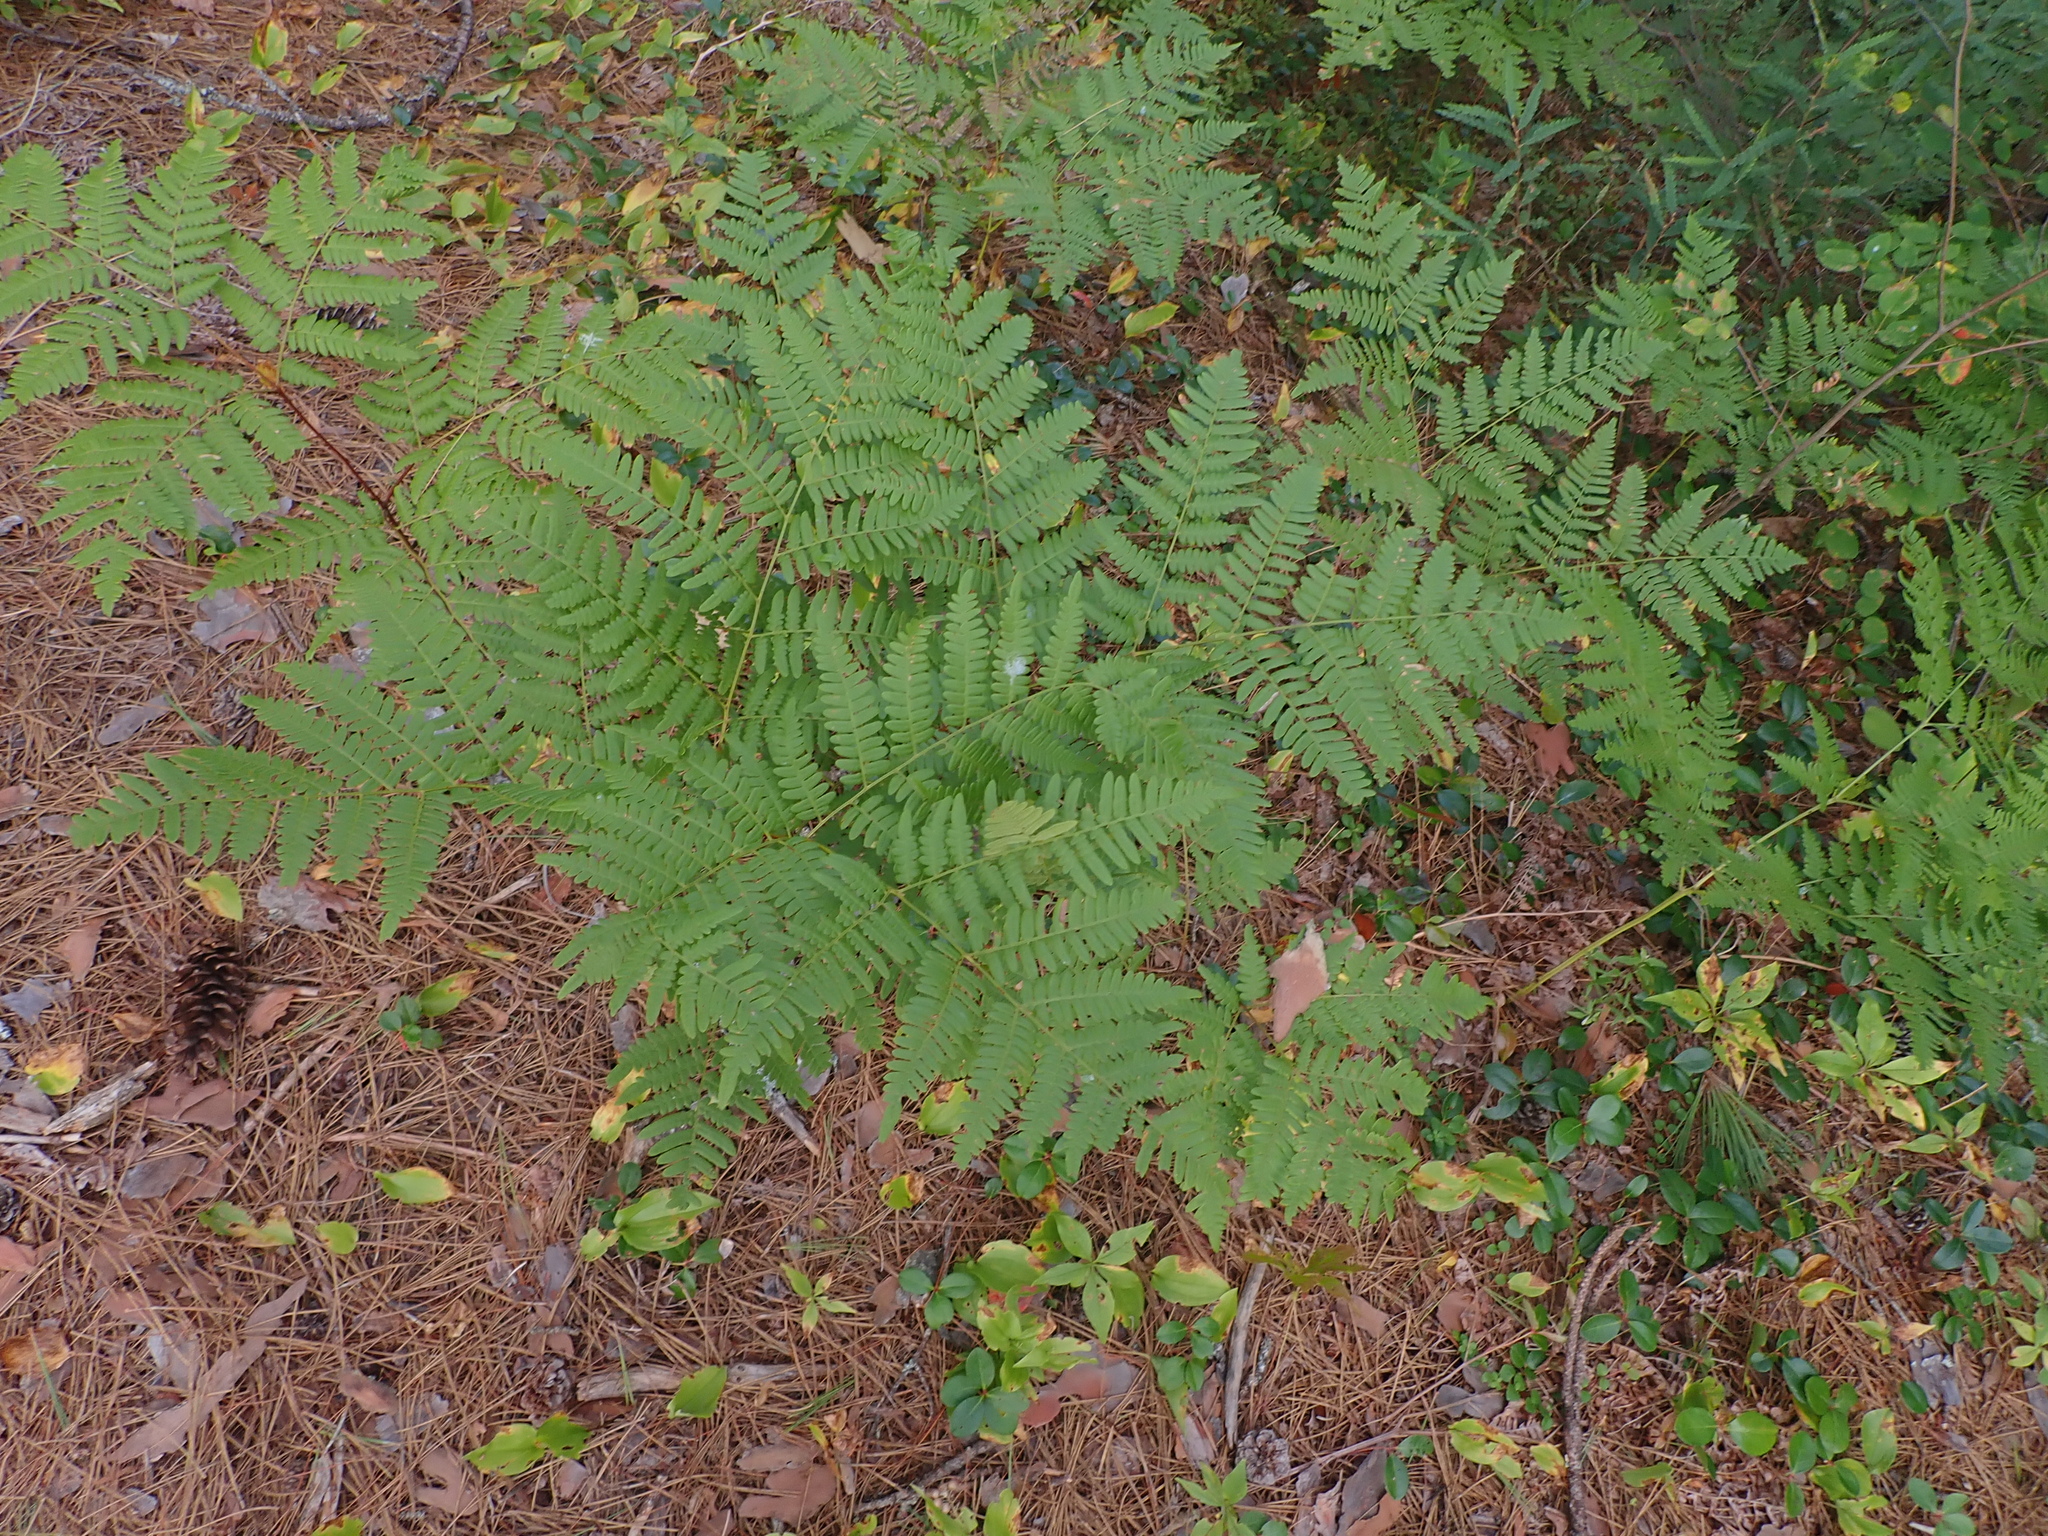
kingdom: Plantae
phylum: Tracheophyta
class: Polypodiopsida
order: Polypodiales
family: Dennstaedtiaceae
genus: Pteridium
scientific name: Pteridium aquilinum
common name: Bracken
